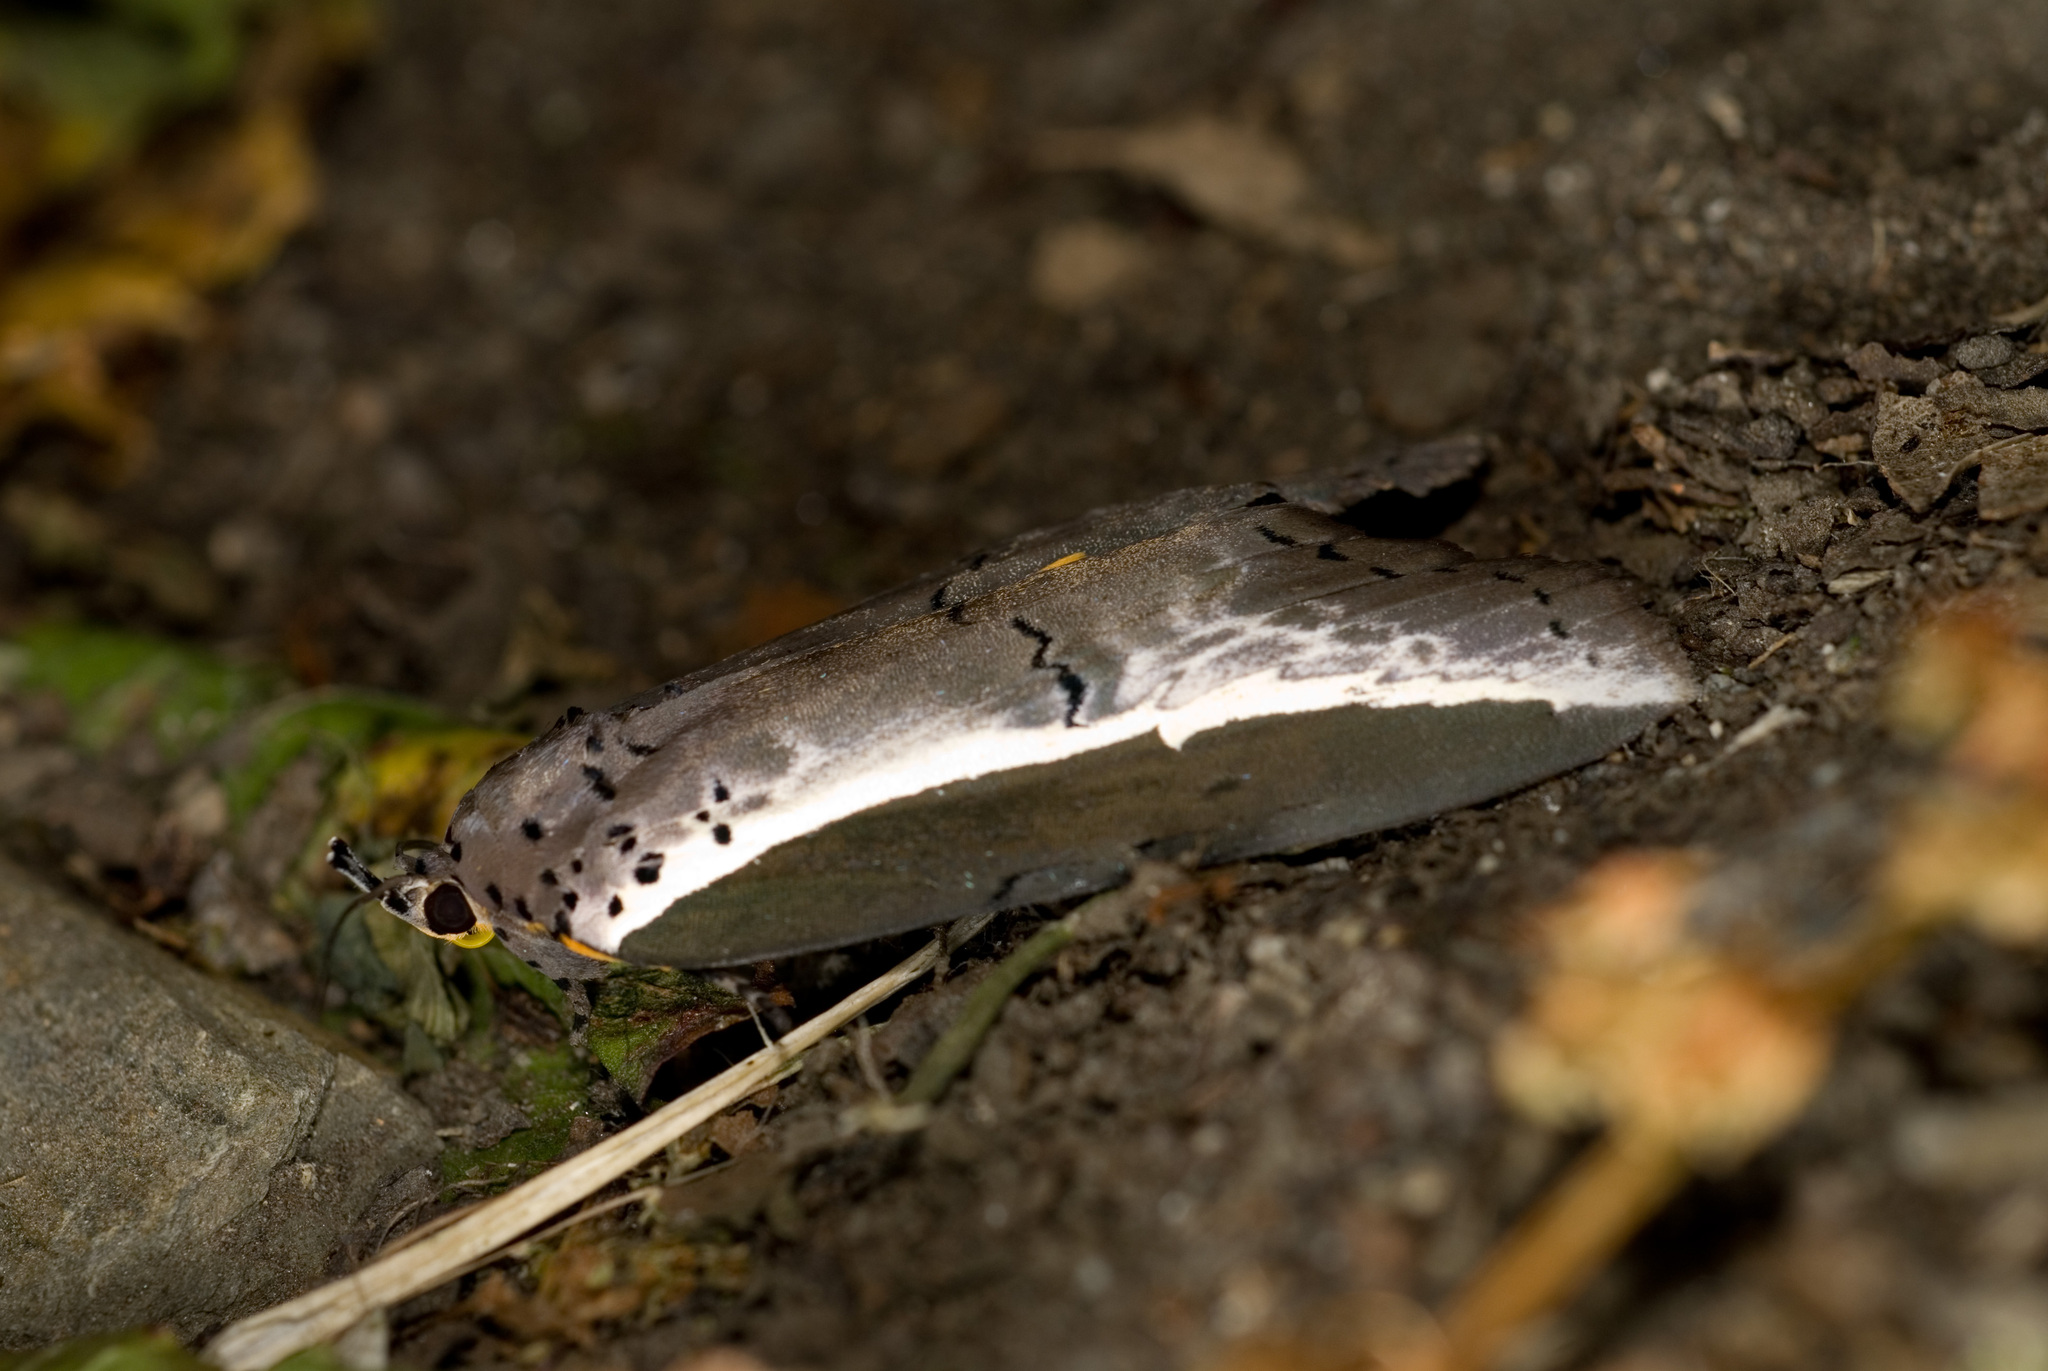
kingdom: Animalia
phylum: Arthropoda
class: Insecta
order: Lepidoptera
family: Nolidae
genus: Eligma
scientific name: Eligma narcissus
